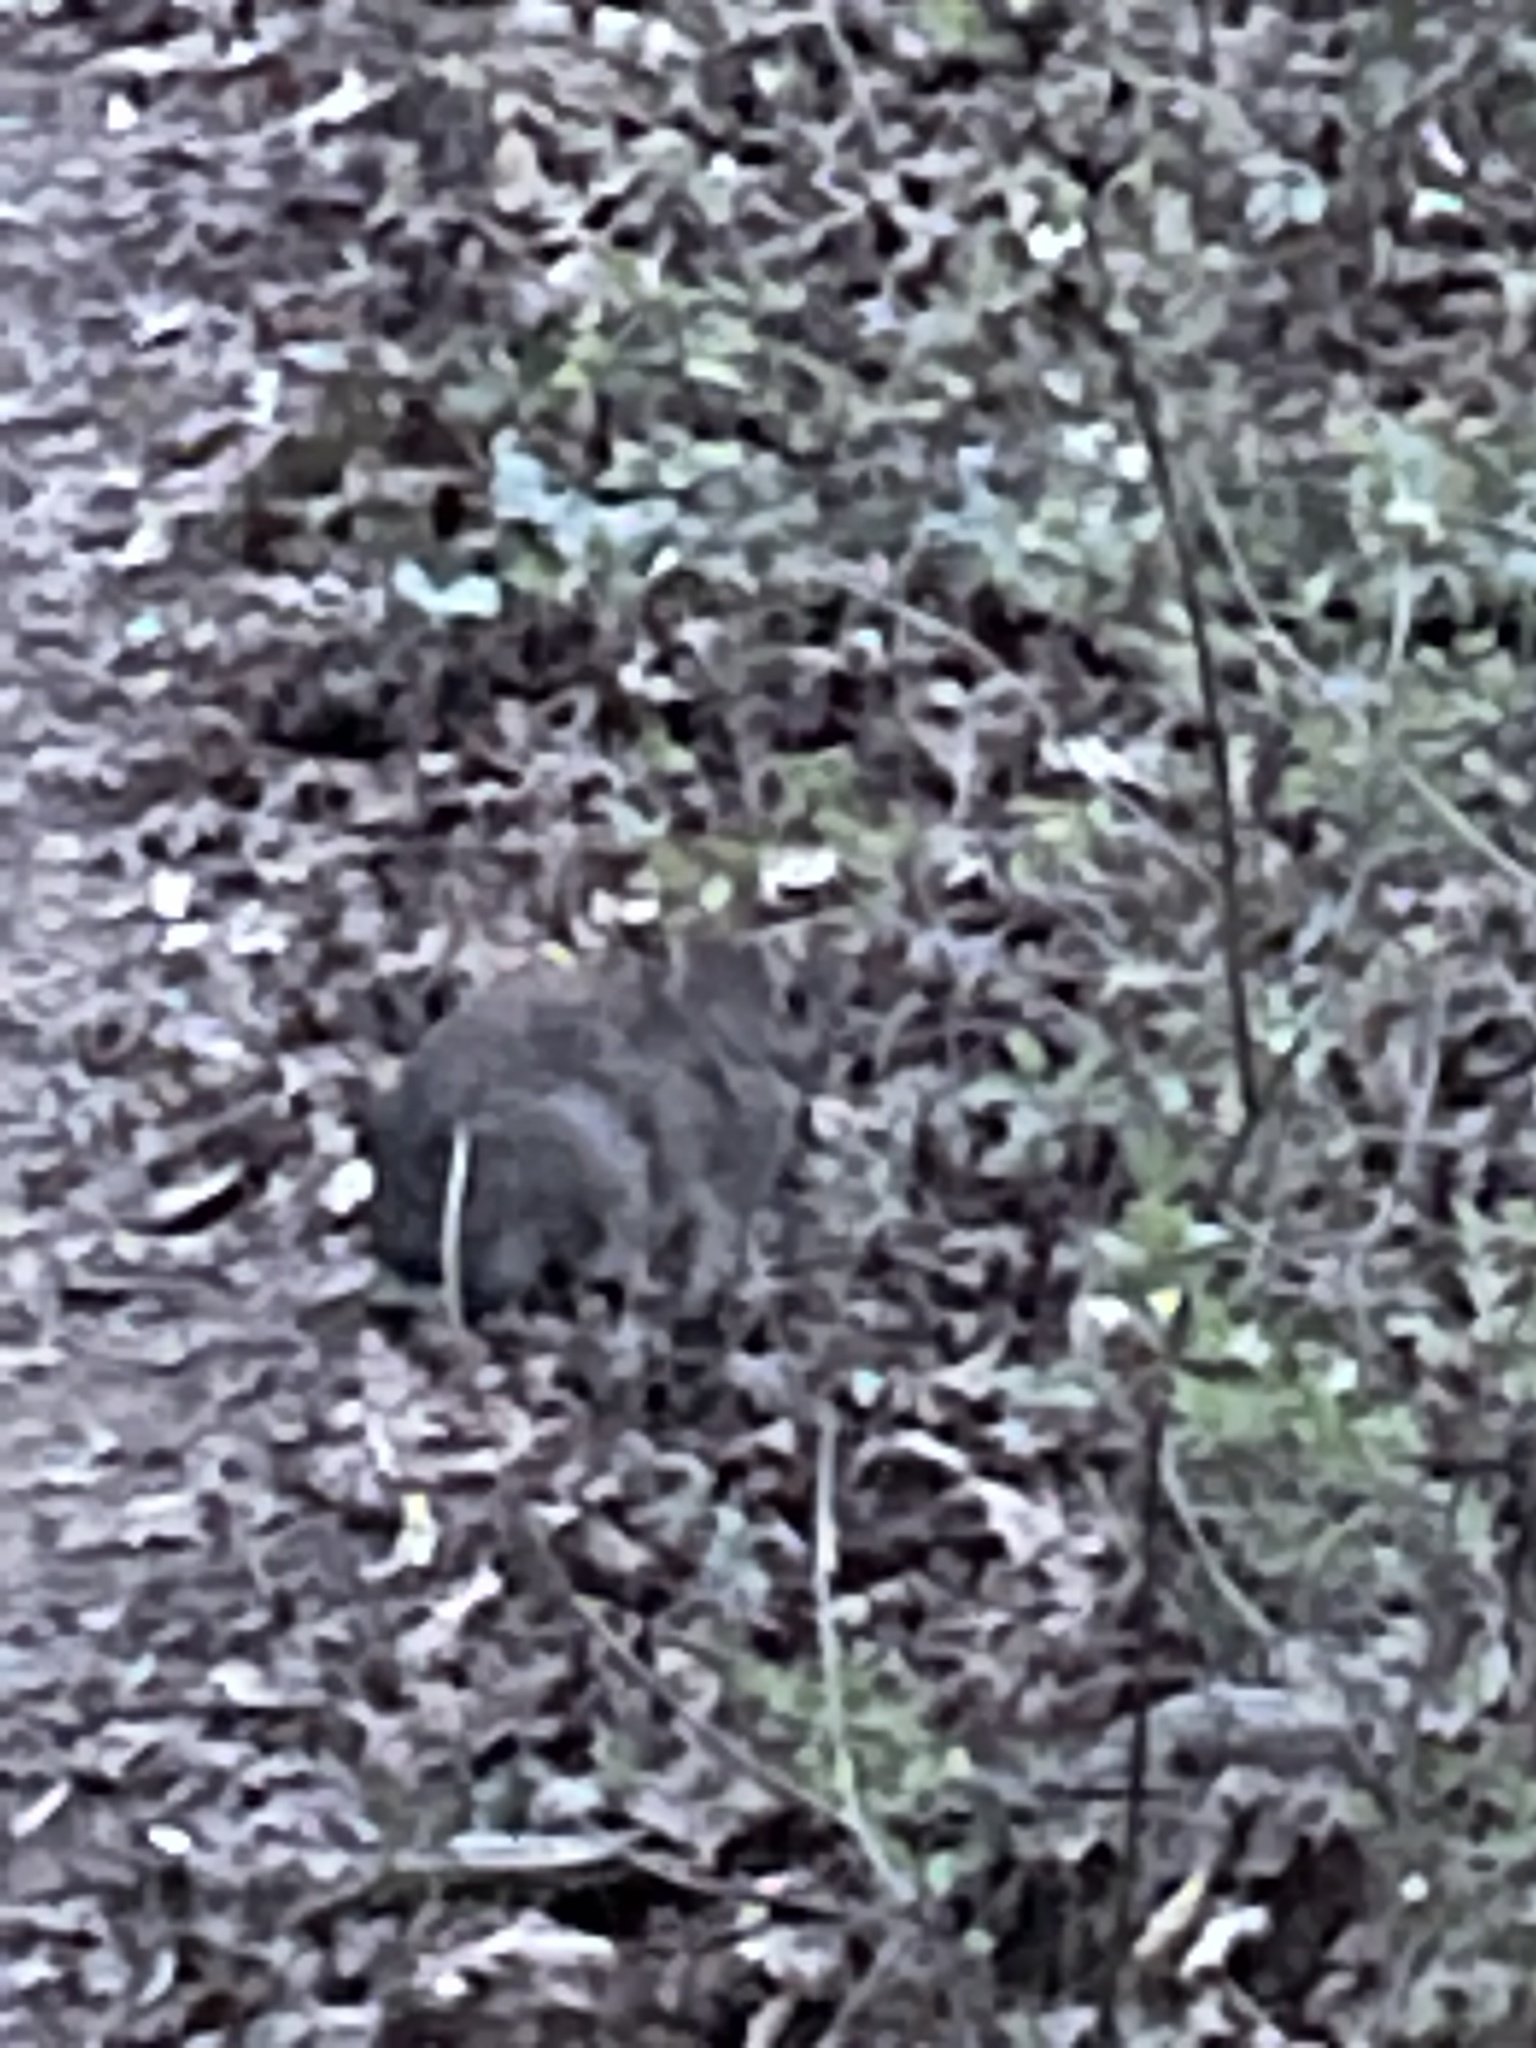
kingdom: Animalia
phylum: Chordata
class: Mammalia
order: Lagomorpha
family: Leporidae
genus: Sylvilagus
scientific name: Sylvilagus floridanus
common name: Eastern cottontail
